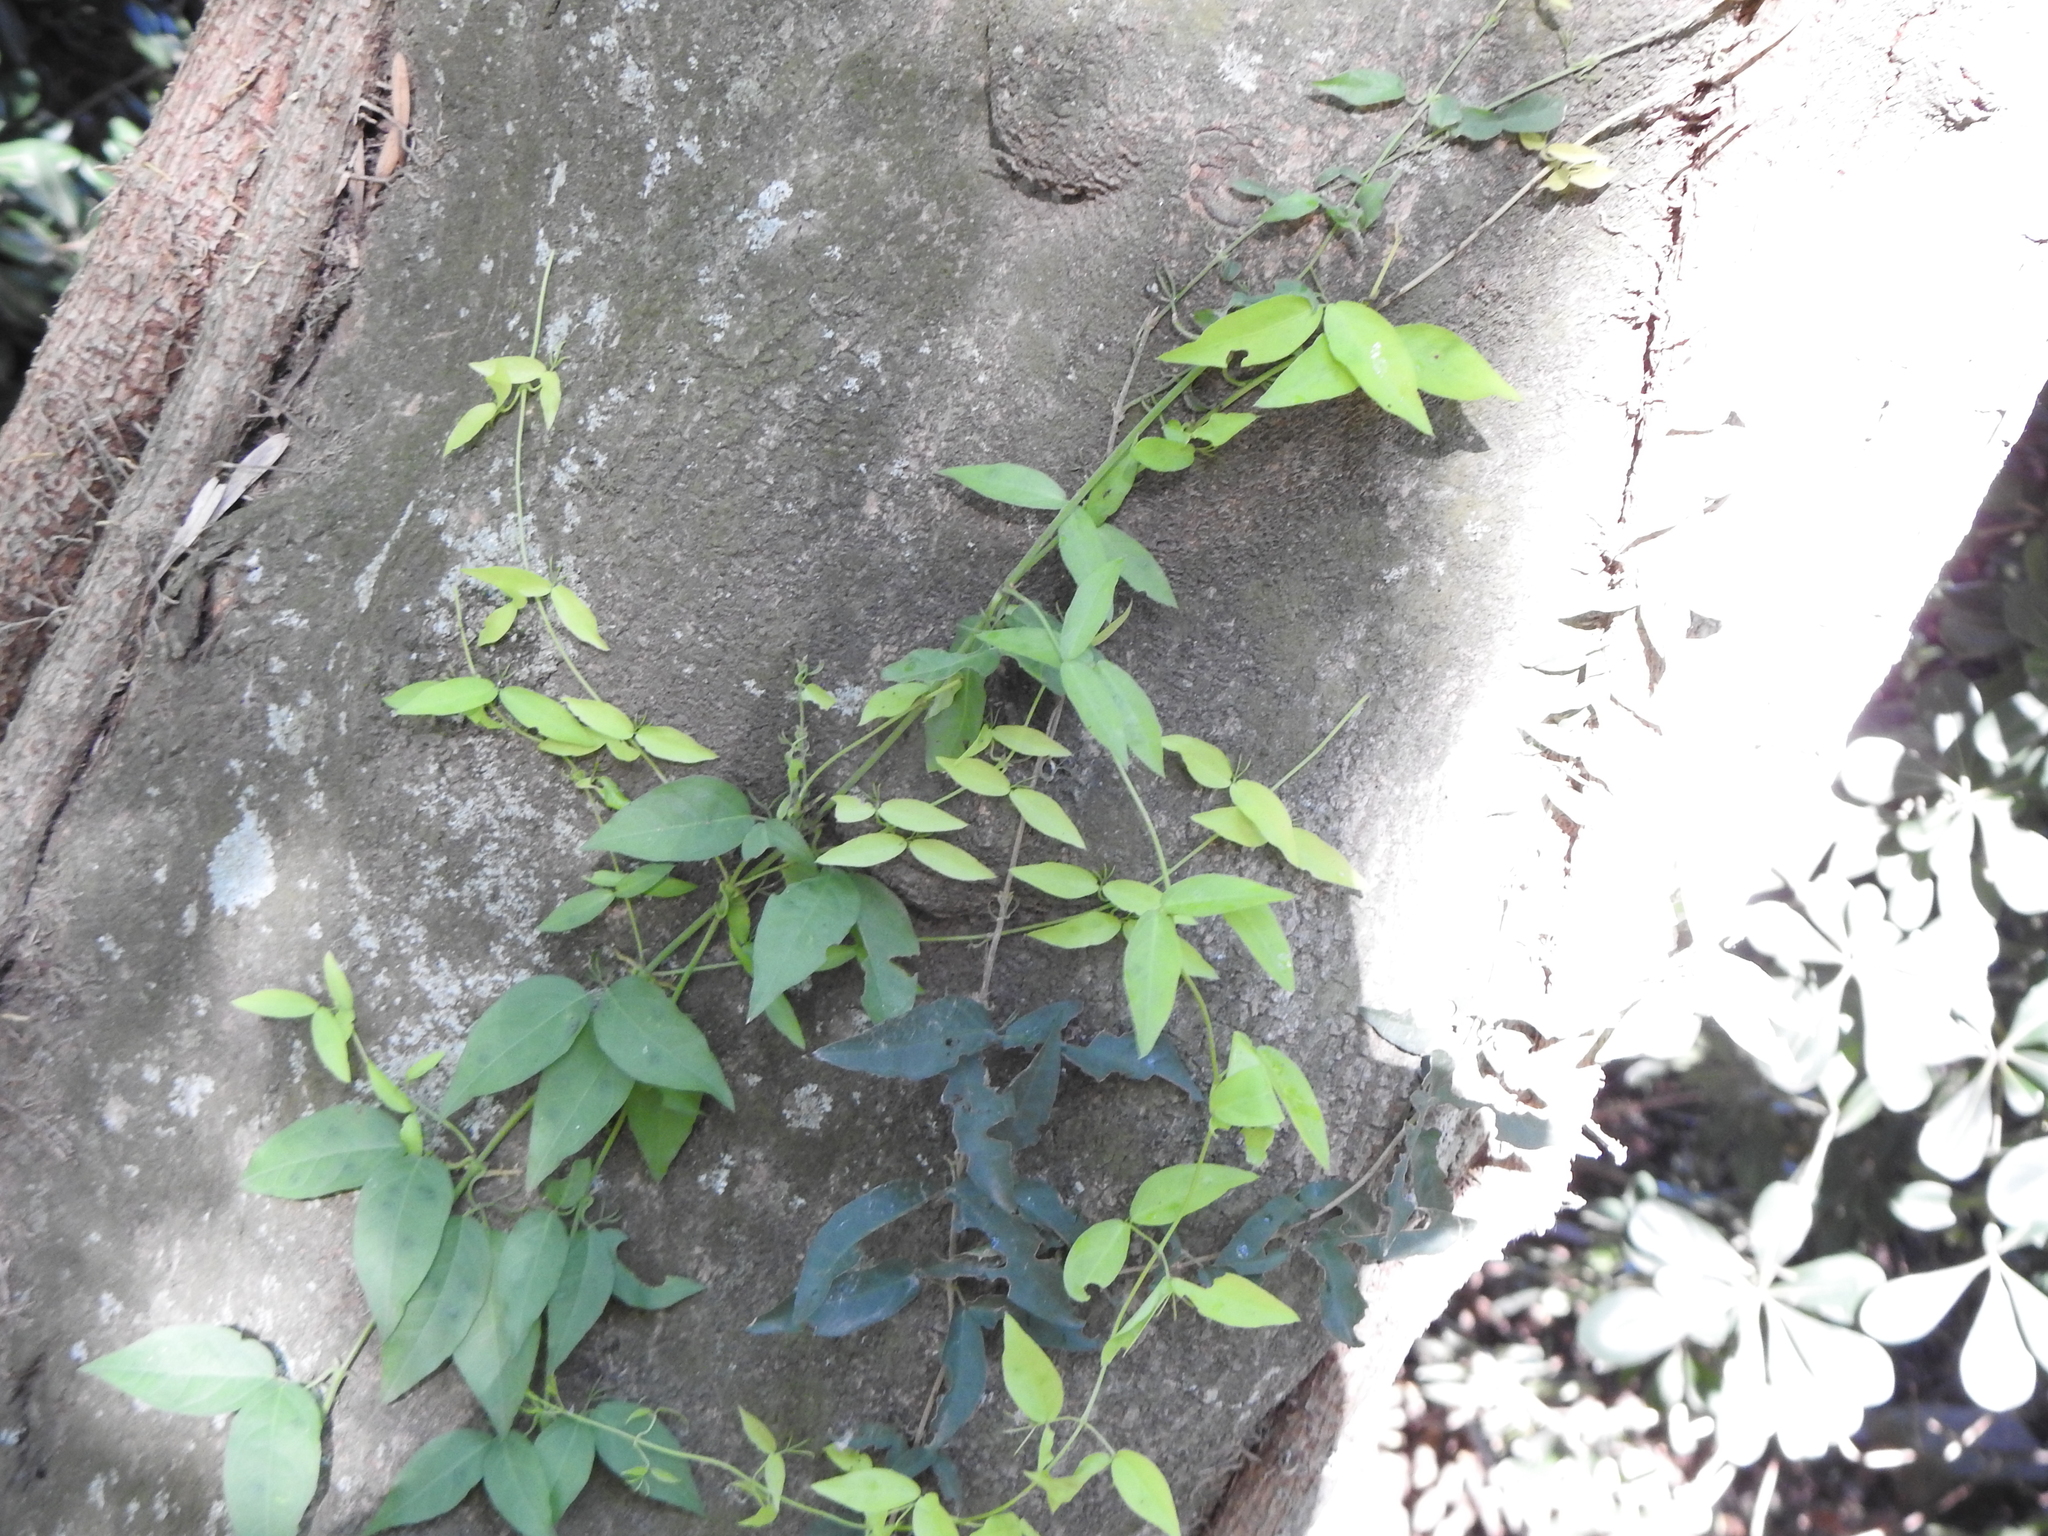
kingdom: Plantae
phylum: Tracheophyta
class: Magnoliopsida
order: Lamiales
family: Bignoniaceae
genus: Dolichandra
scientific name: Dolichandra unguis-cati
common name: Catclaw vine
